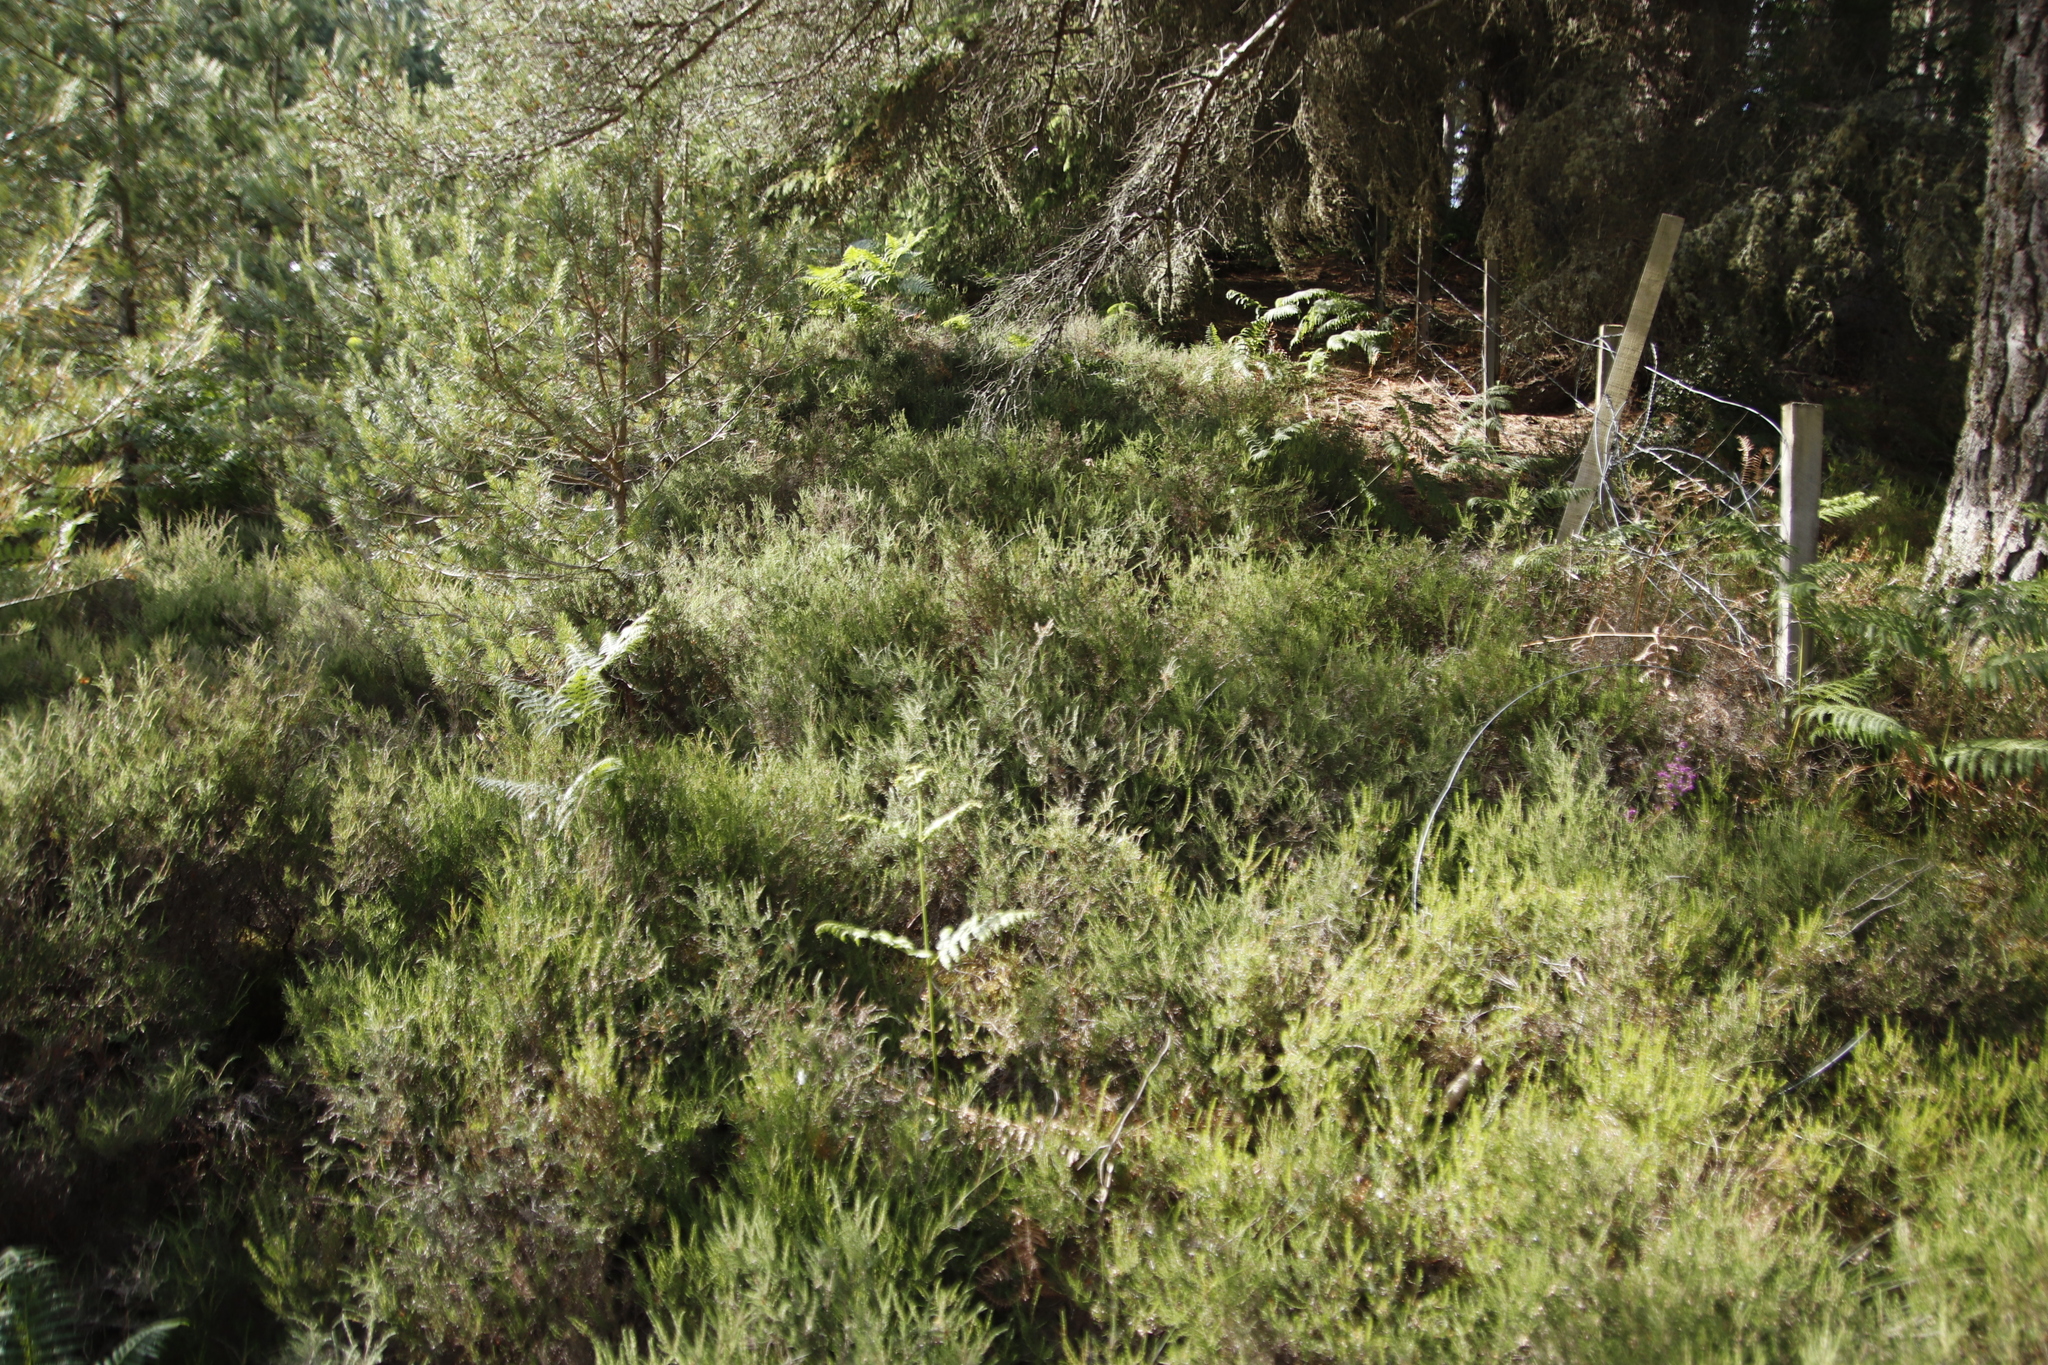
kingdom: Plantae
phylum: Tracheophyta
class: Magnoliopsida
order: Ericales
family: Ericaceae
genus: Calluna
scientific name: Calluna vulgaris
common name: Heather
